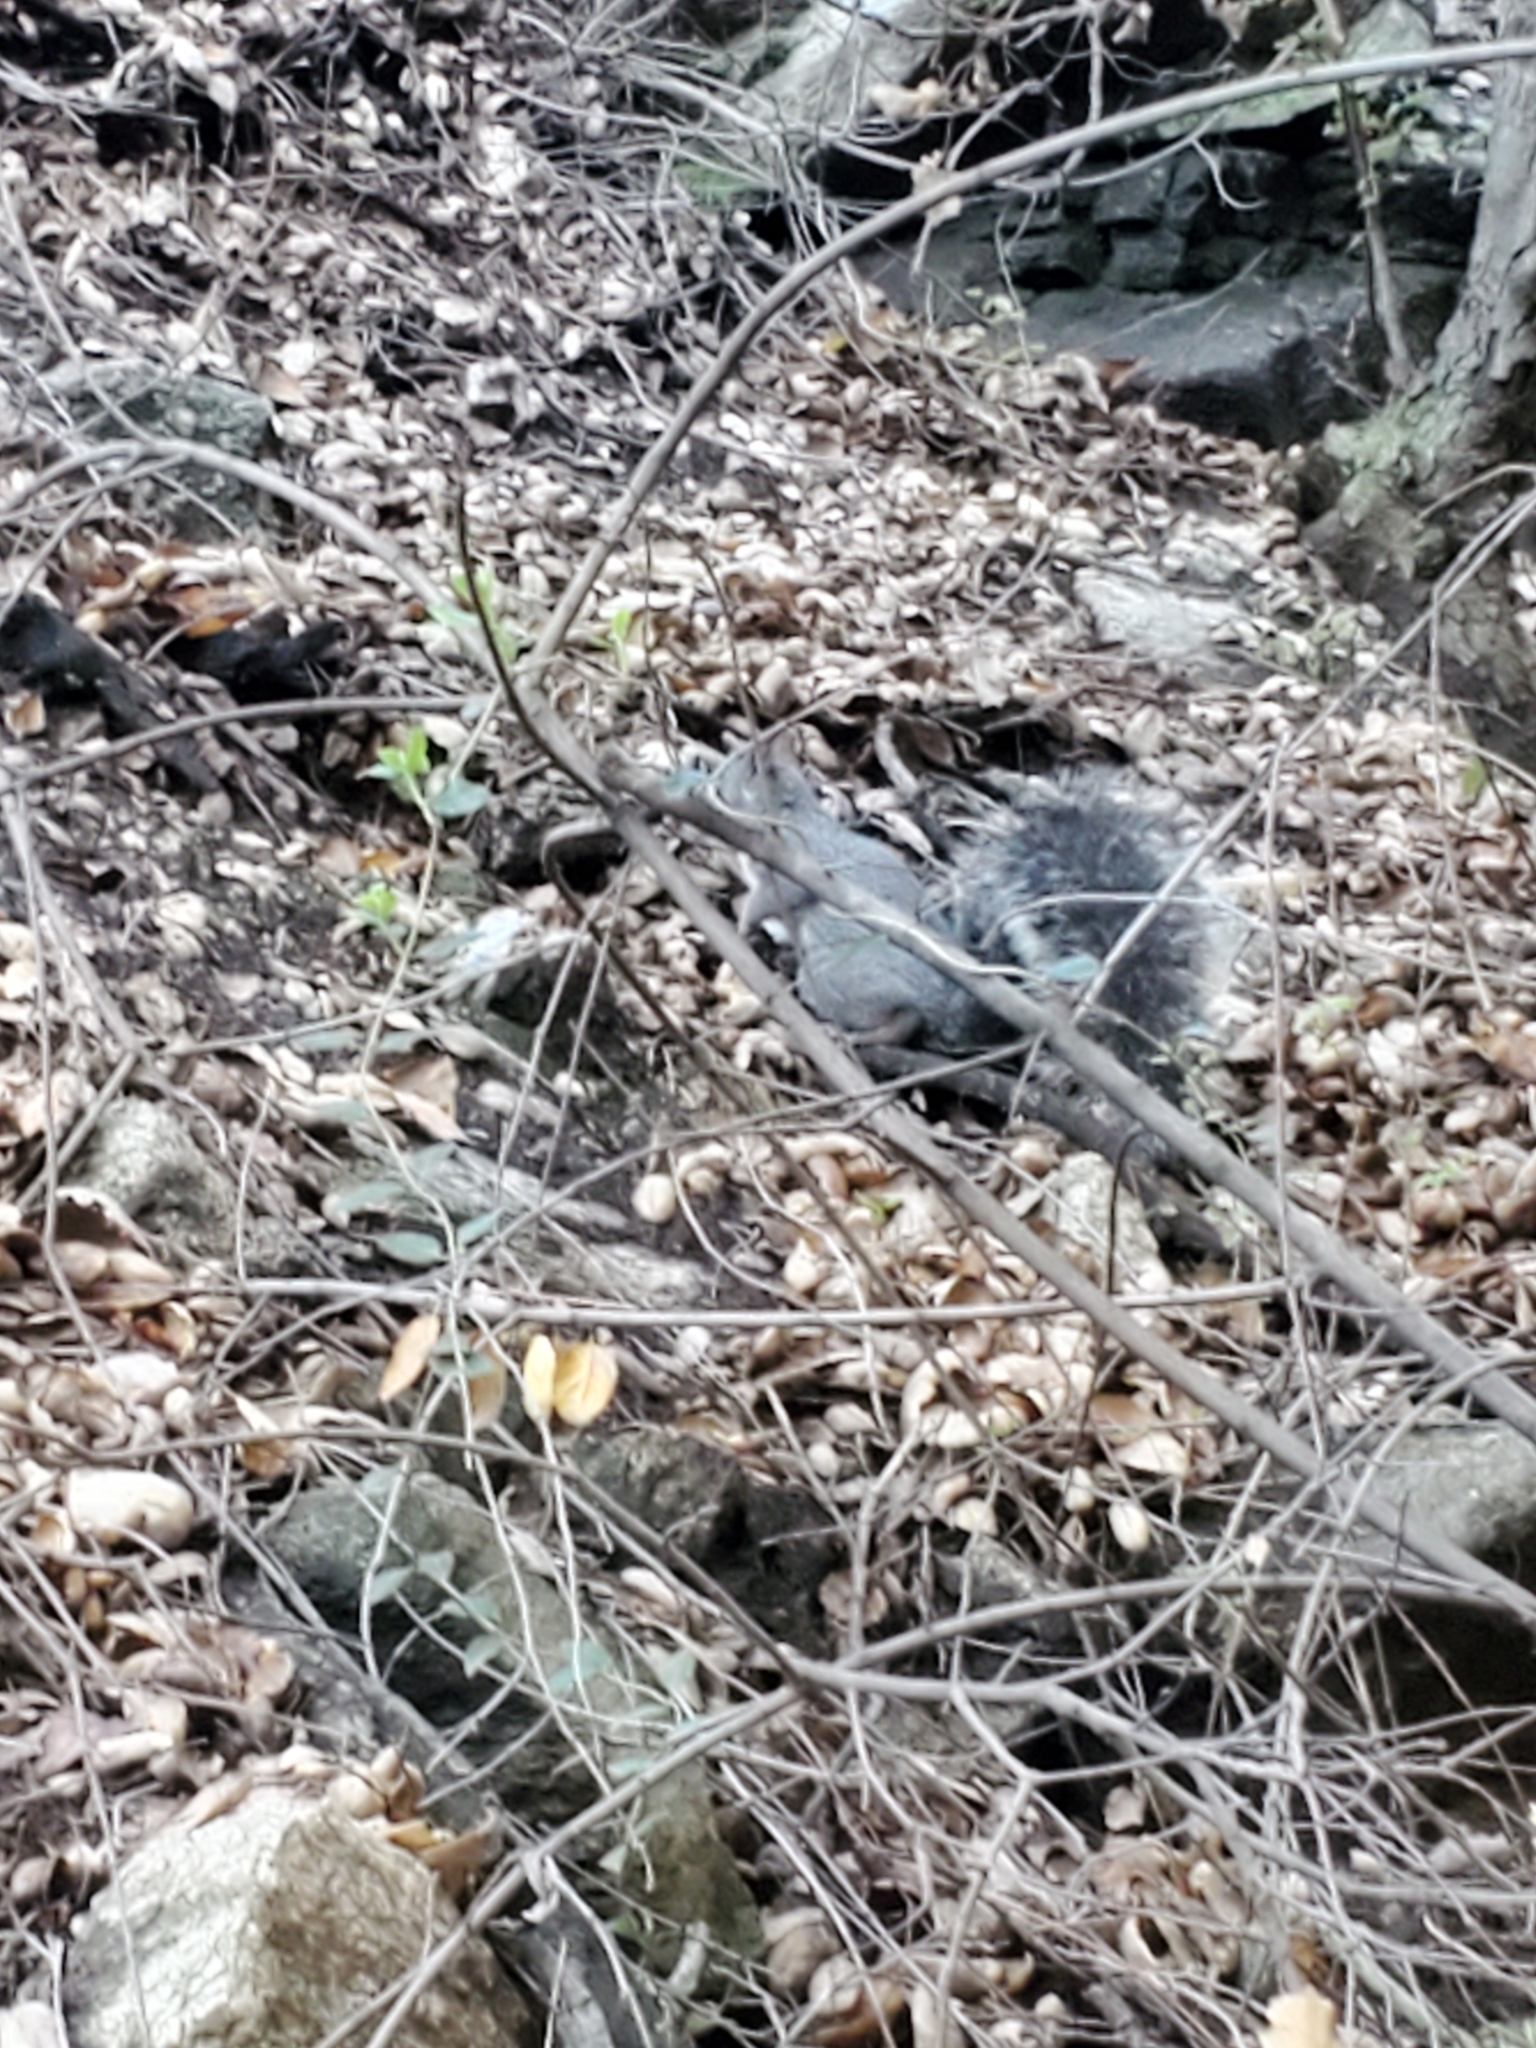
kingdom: Animalia
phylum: Chordata
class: Mammalia
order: Rodentia
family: Sciuridae
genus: Sciurus
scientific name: Sciurus griseus
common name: Western gray squirrel
